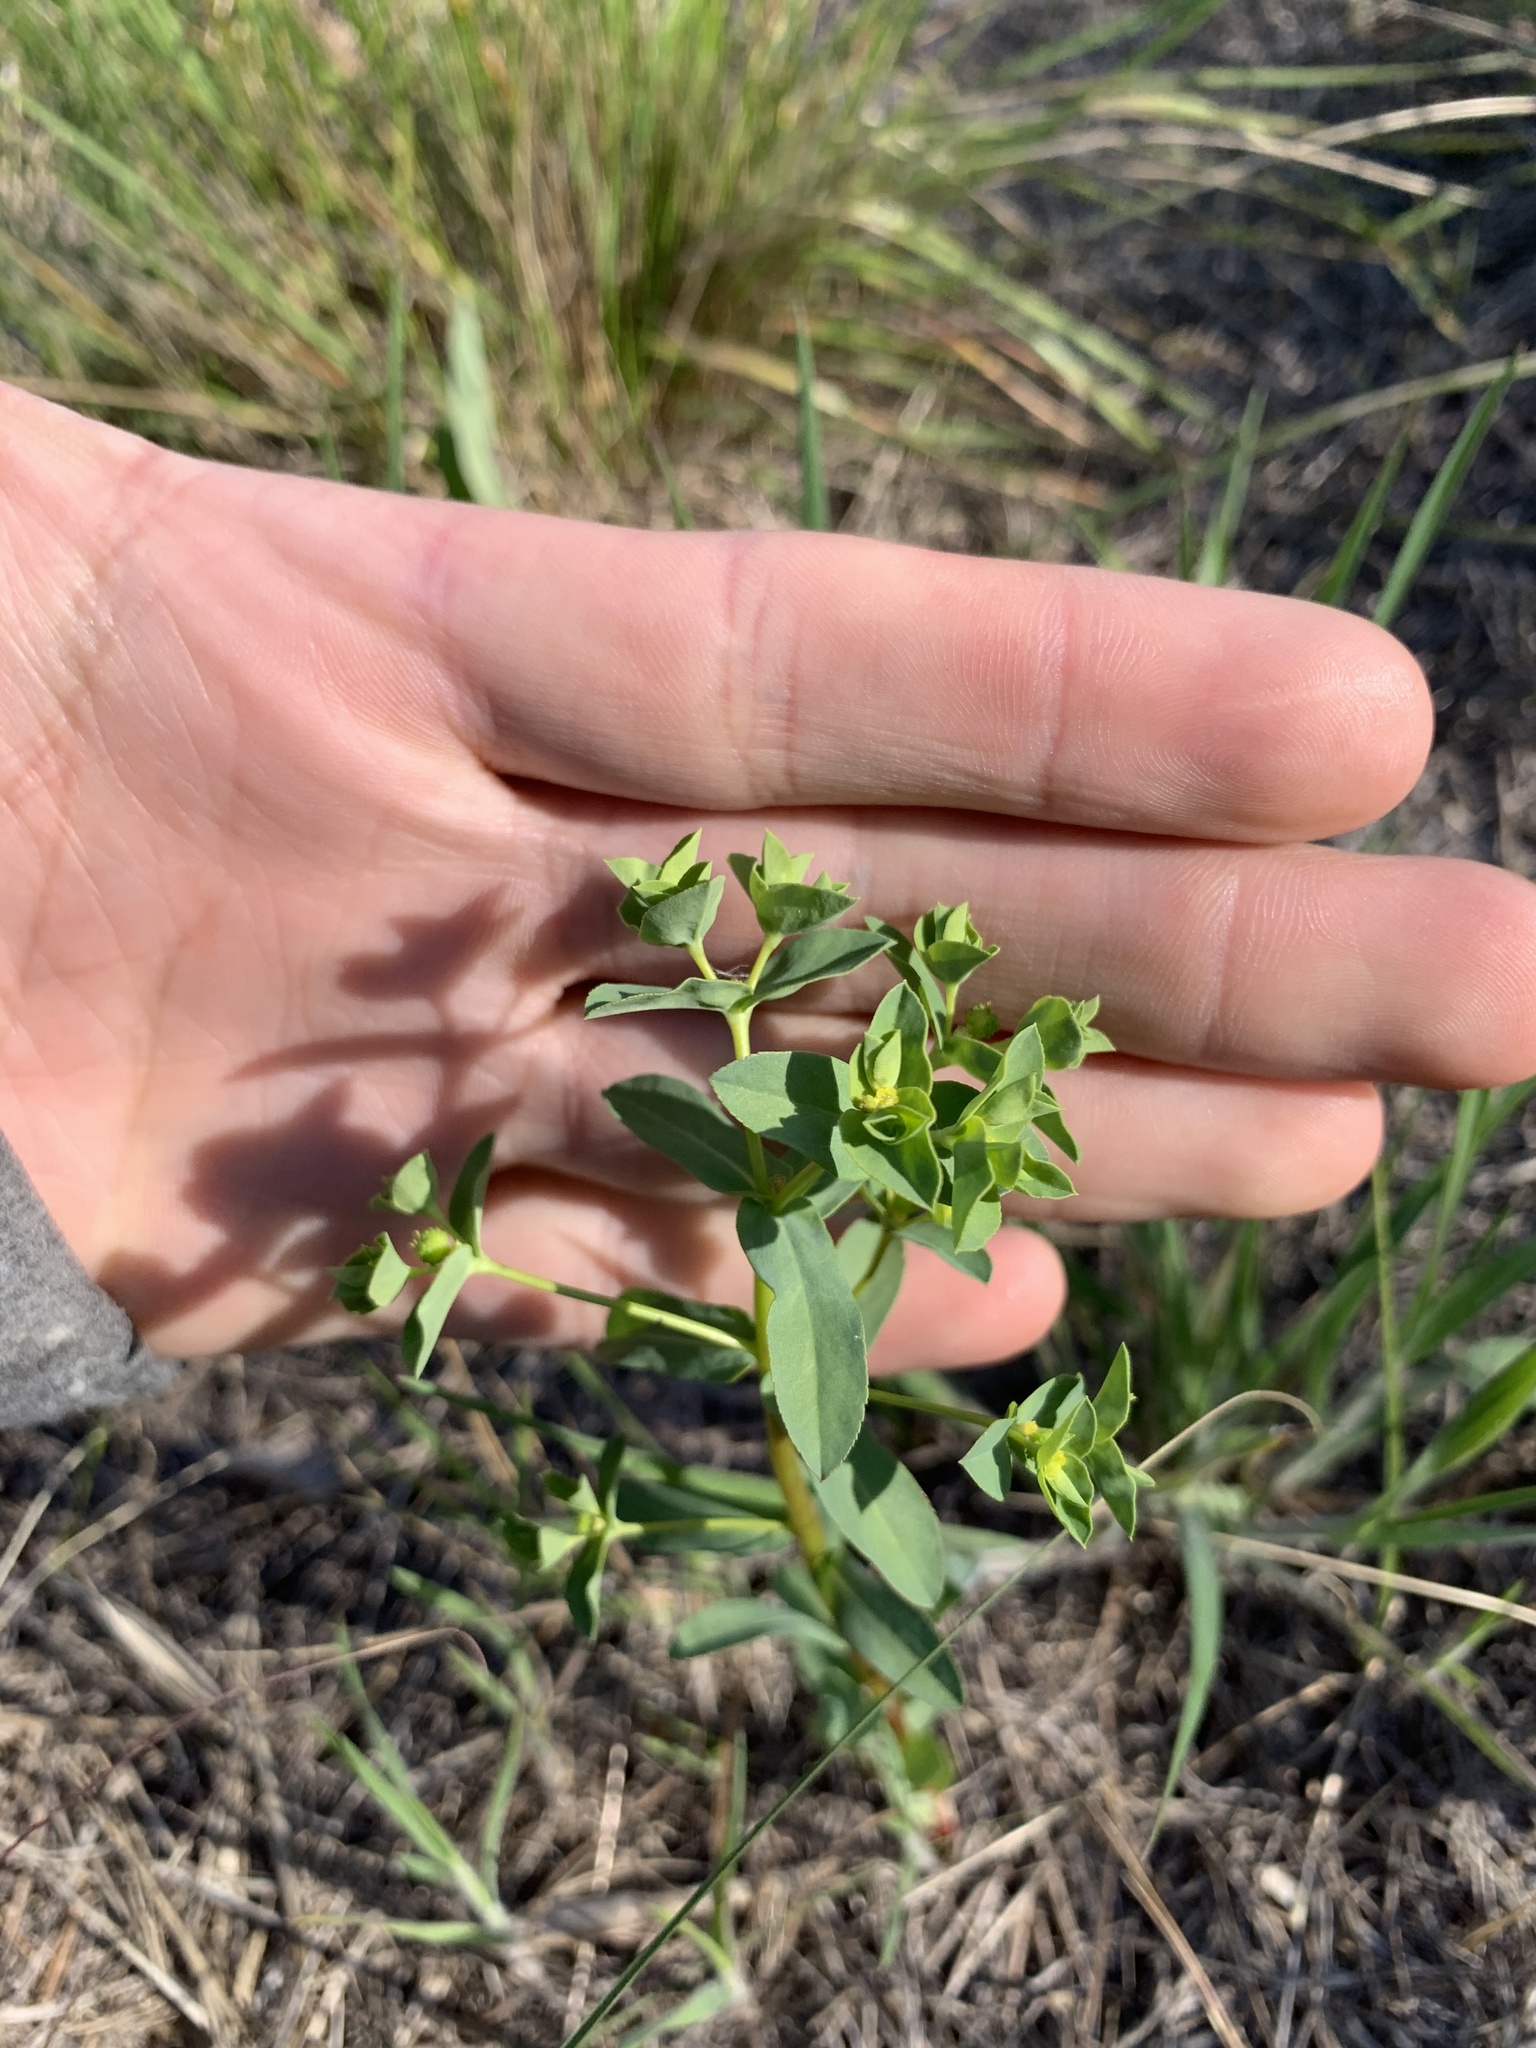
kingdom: Plantae
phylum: Tracheophyta
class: Magnoliopsida
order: Malpighiales
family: Euphorbiaceae
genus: Euphorbia
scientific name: Euphorbia spathulata
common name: Blunt spurge
